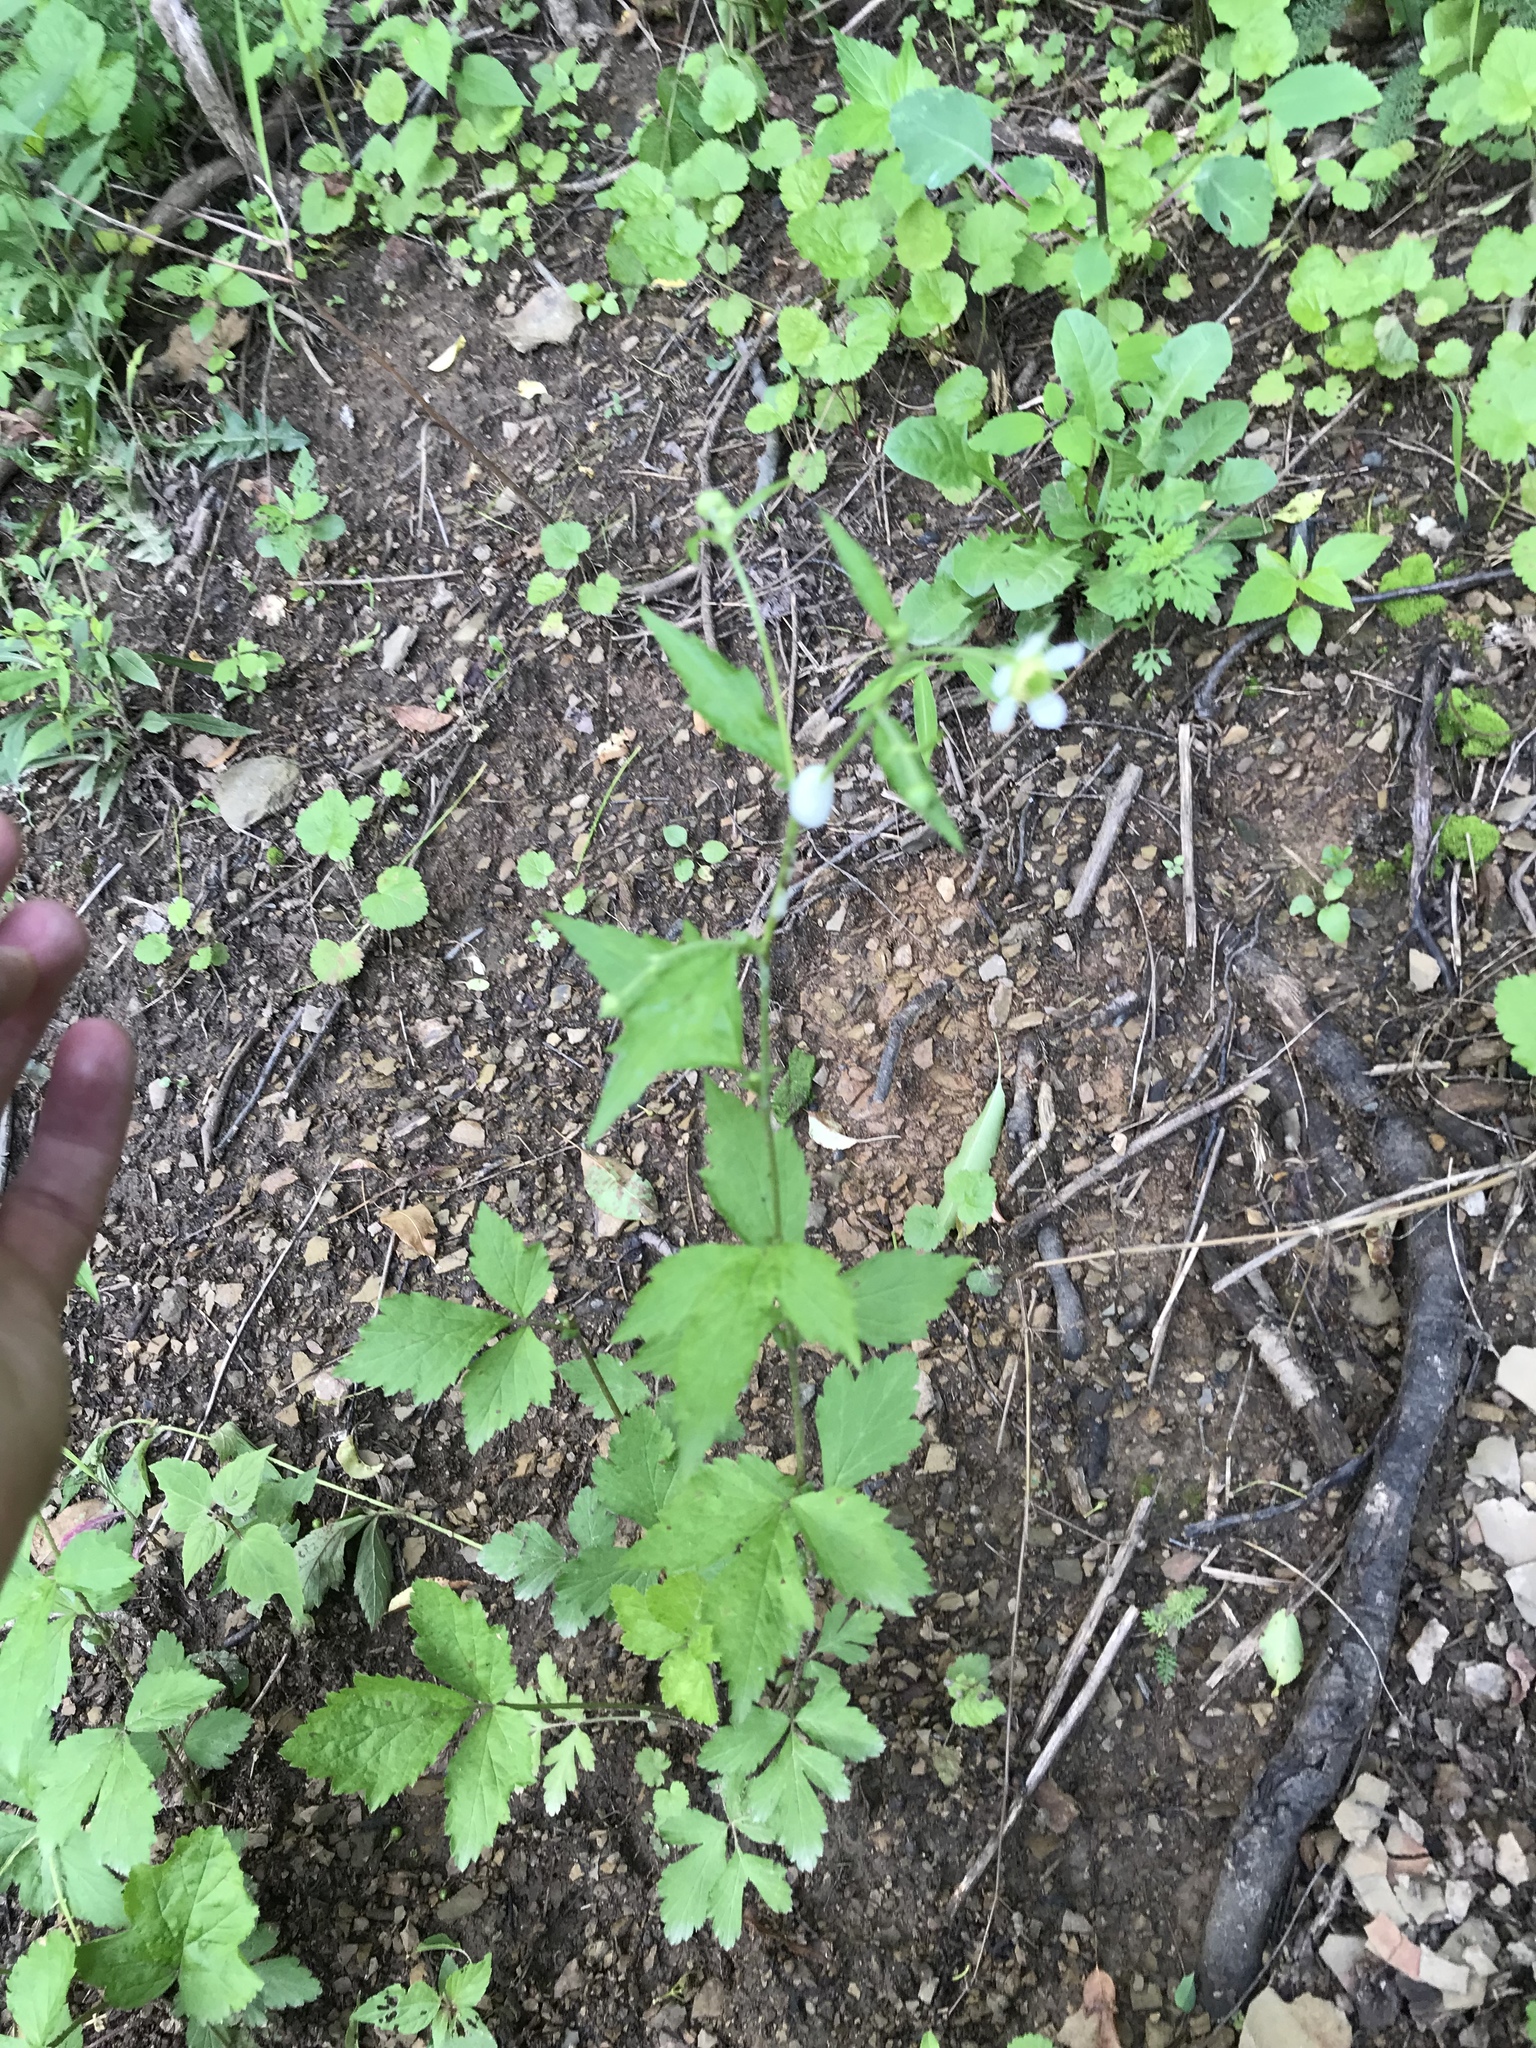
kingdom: Plantae
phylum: Tracheophyta
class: Magnoliopsida
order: Rosales
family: Rosaceae
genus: Geum
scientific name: Geum canadense
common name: White avens
